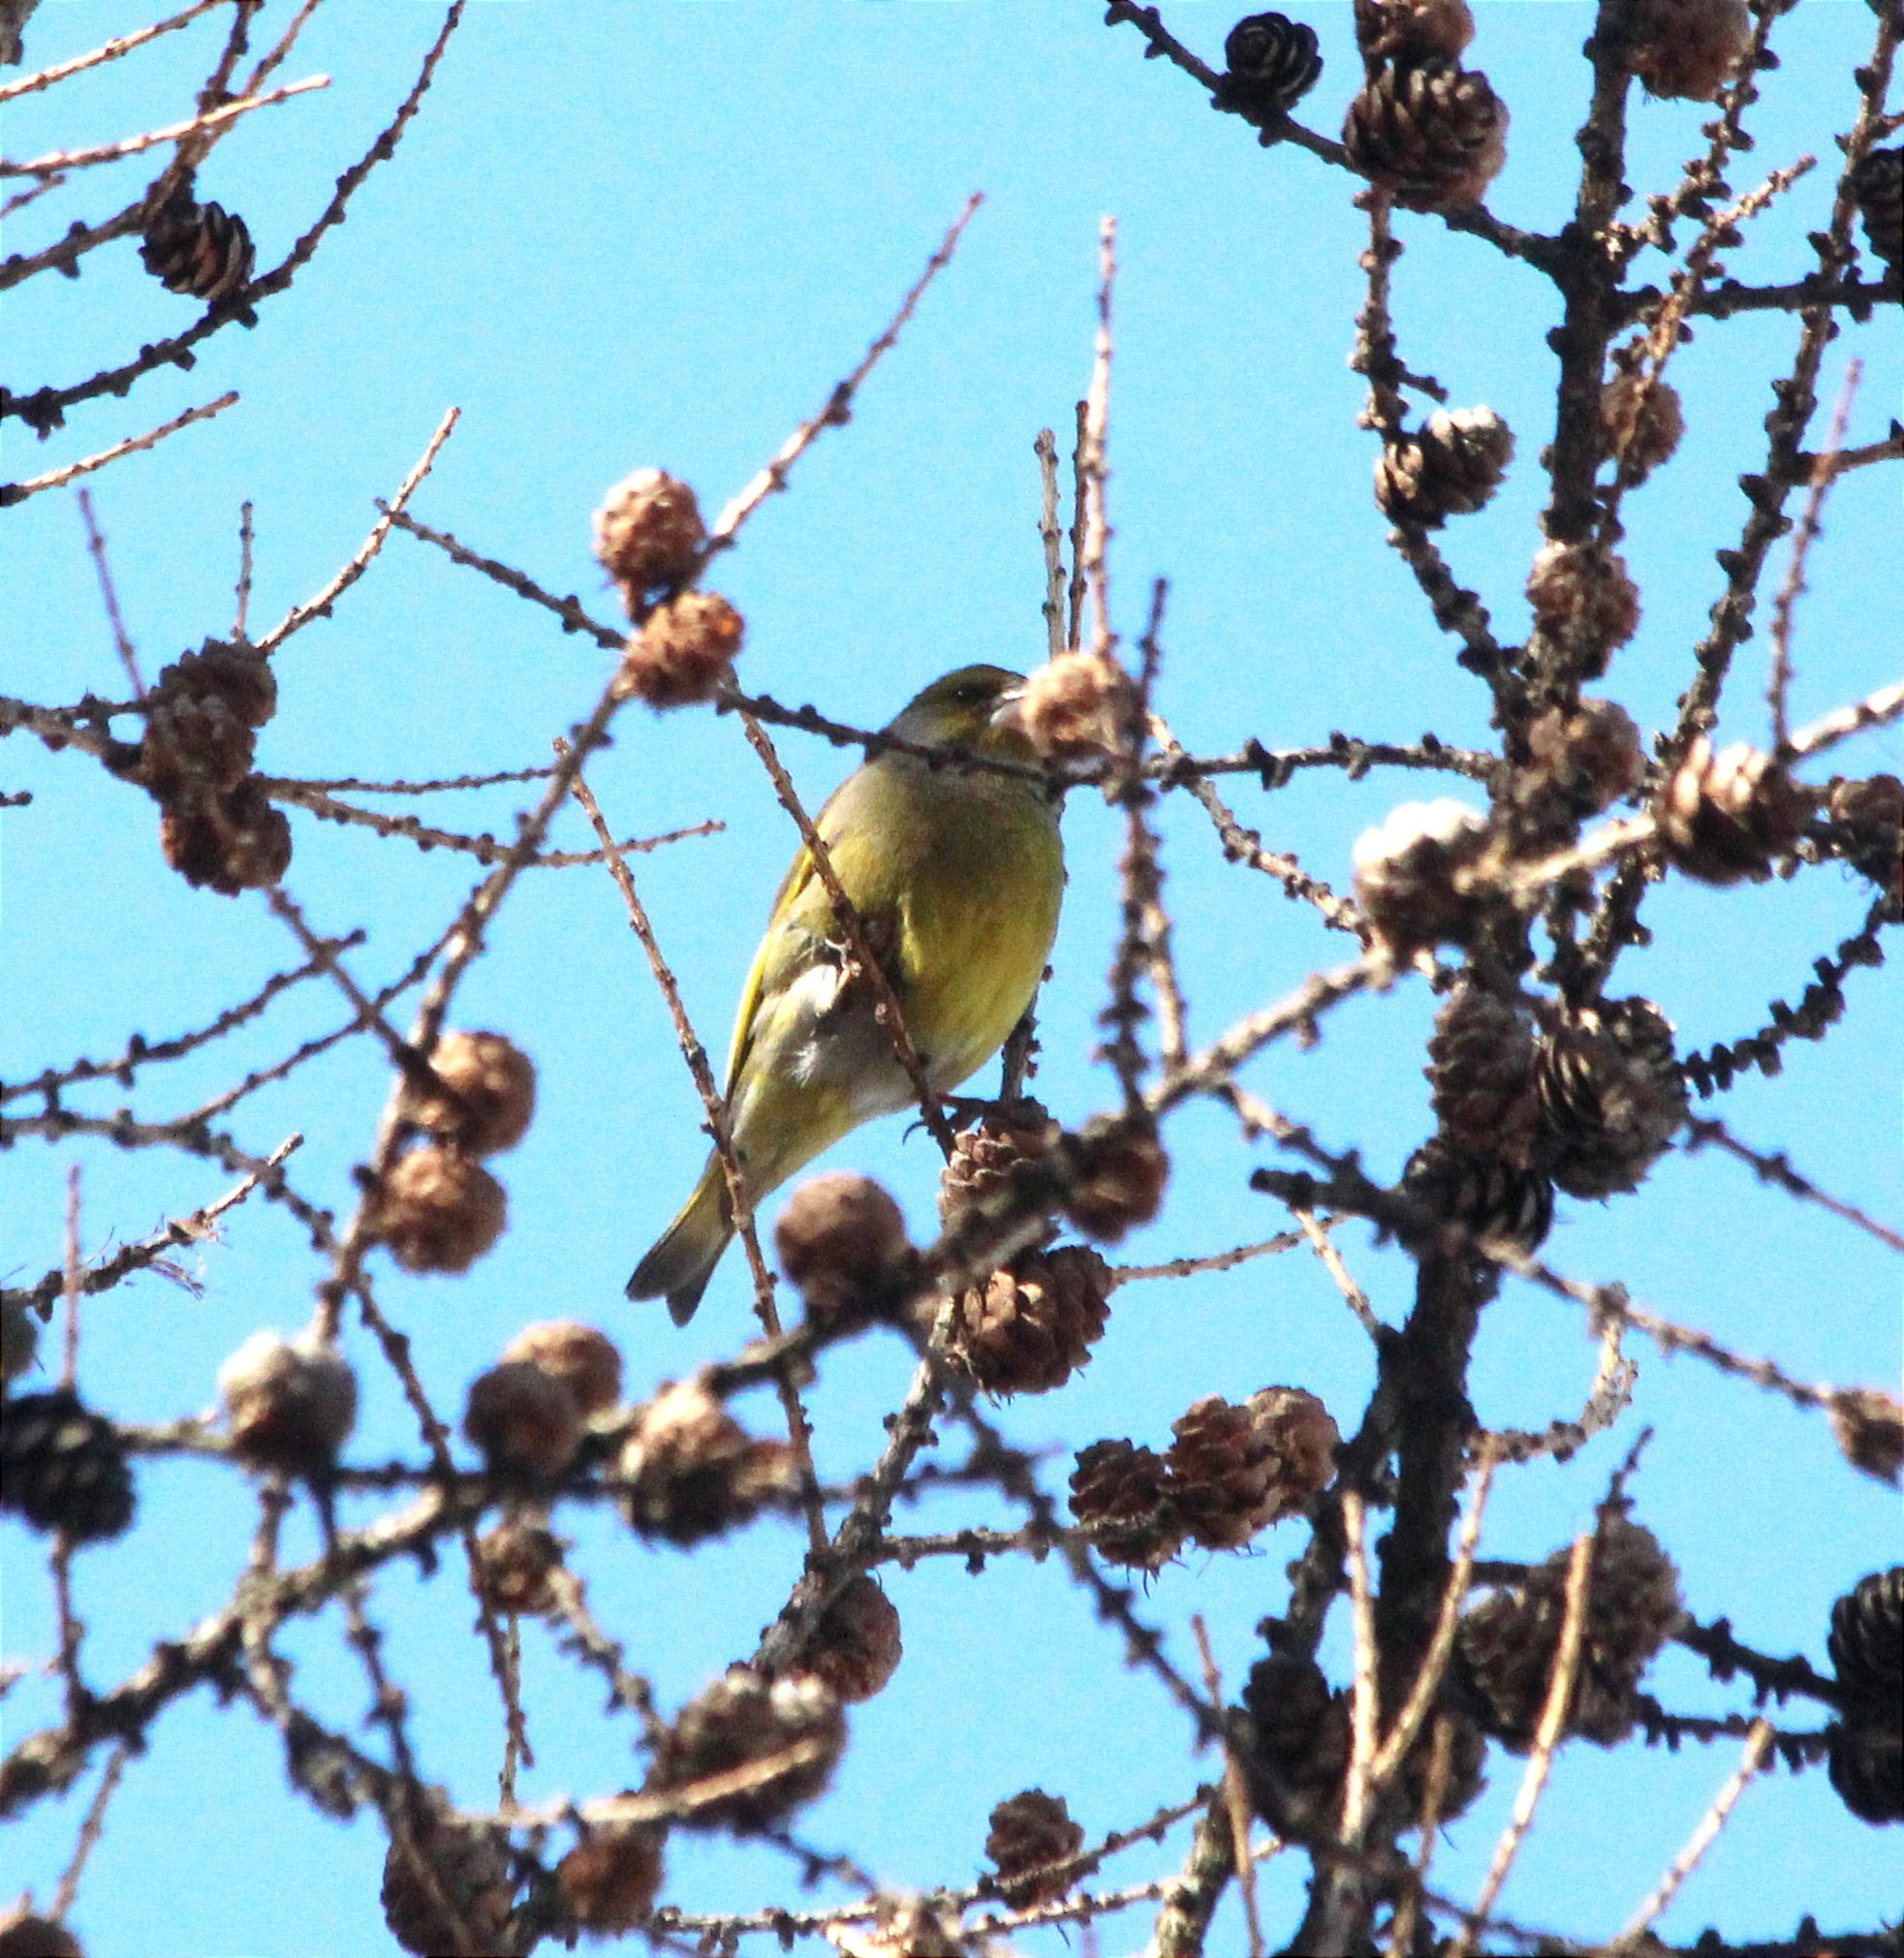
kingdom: Plantae
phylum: Tracheophyta
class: Liliopsida
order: Poales
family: Poaceae
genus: Chloris
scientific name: Chloris chloris
